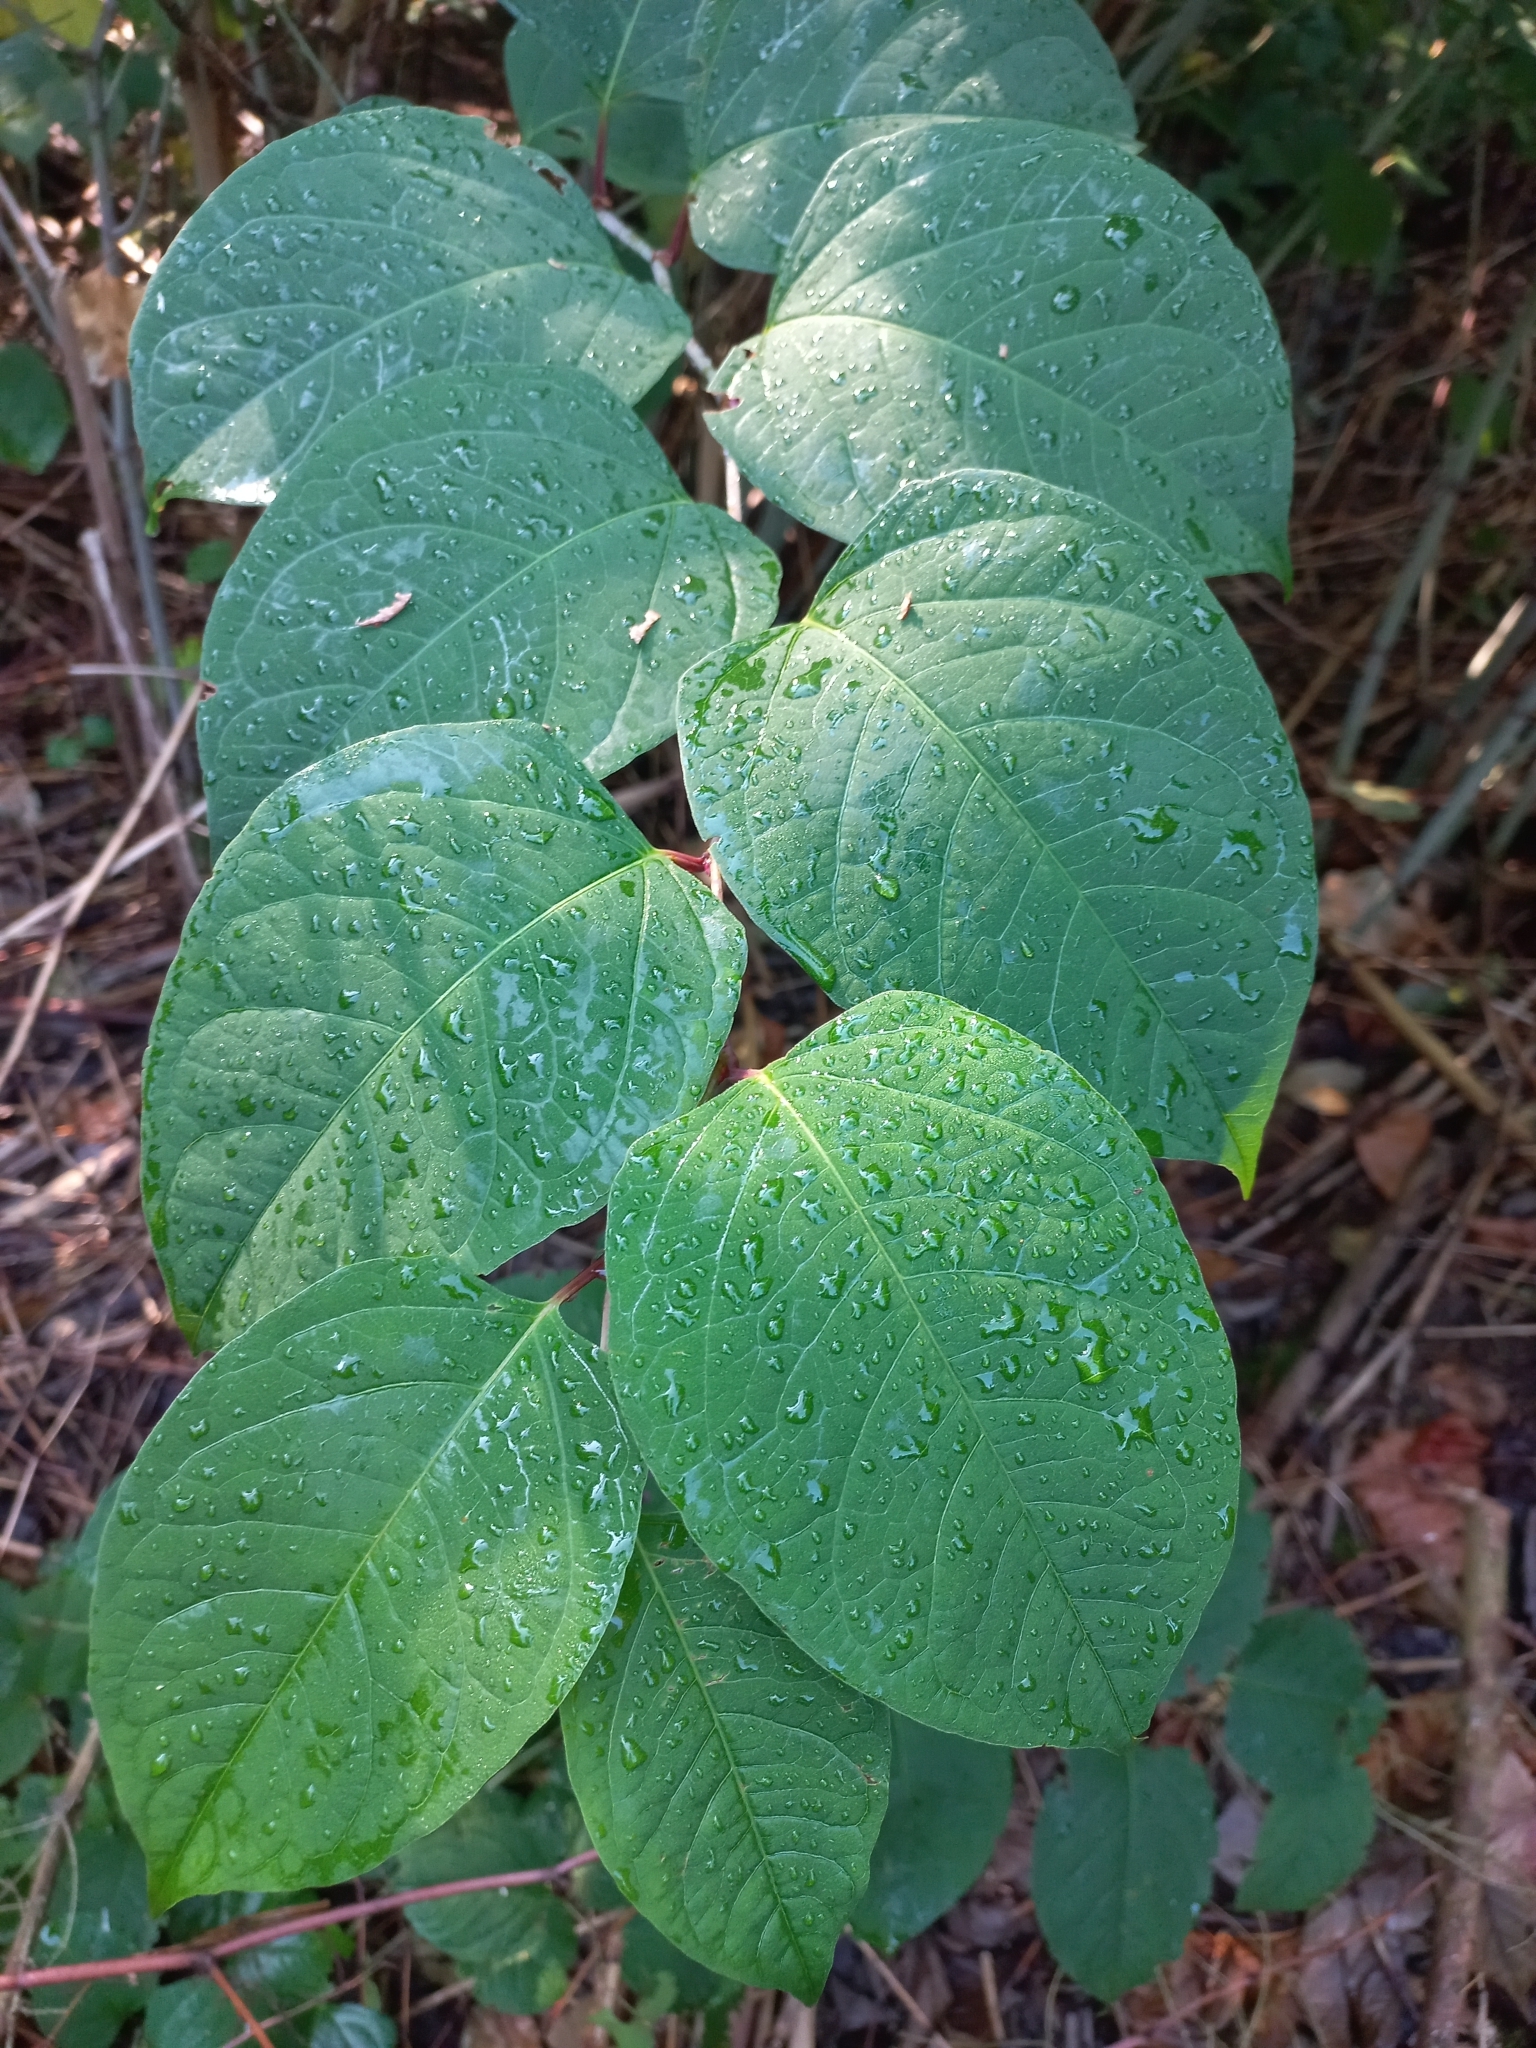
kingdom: Plantae
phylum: Tracheophyta
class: Magnoliopsida
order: Caryophyllales
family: Polygonaceae
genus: Reynoutria
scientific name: Reynoutria japonica
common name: Japanese knotweed
